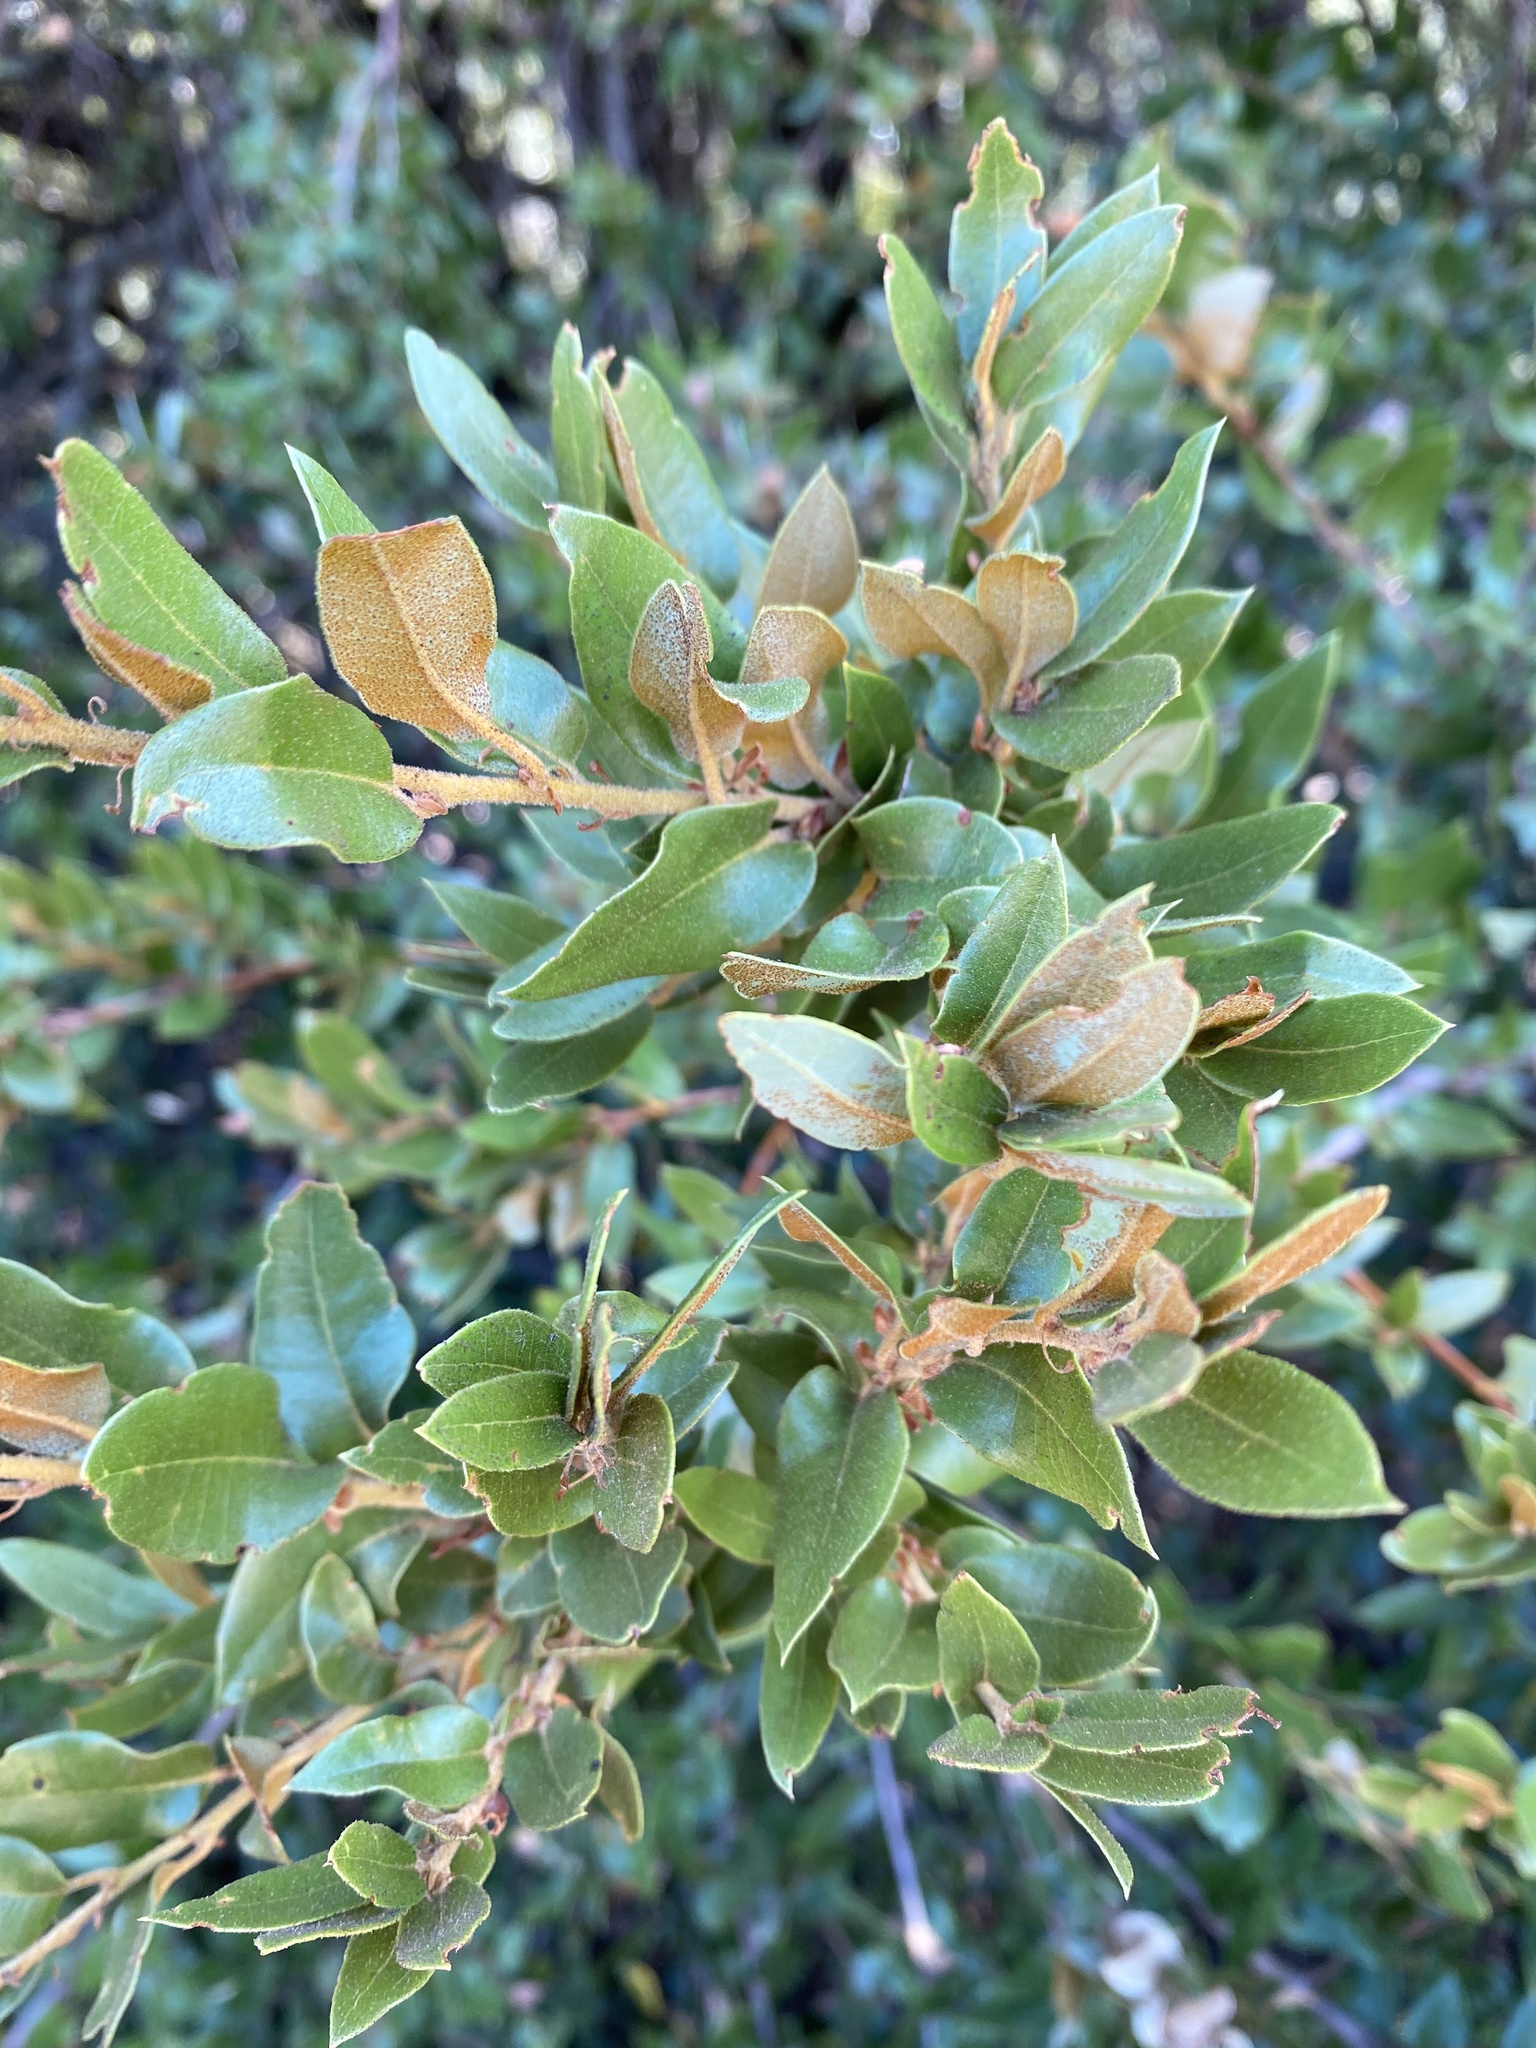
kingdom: Plantae
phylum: Tracheophyta
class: Magnoliopsida
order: Fagales
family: Fagaceae
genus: Quercus
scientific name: Quercus chrysolepis
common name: Canyon live oak
